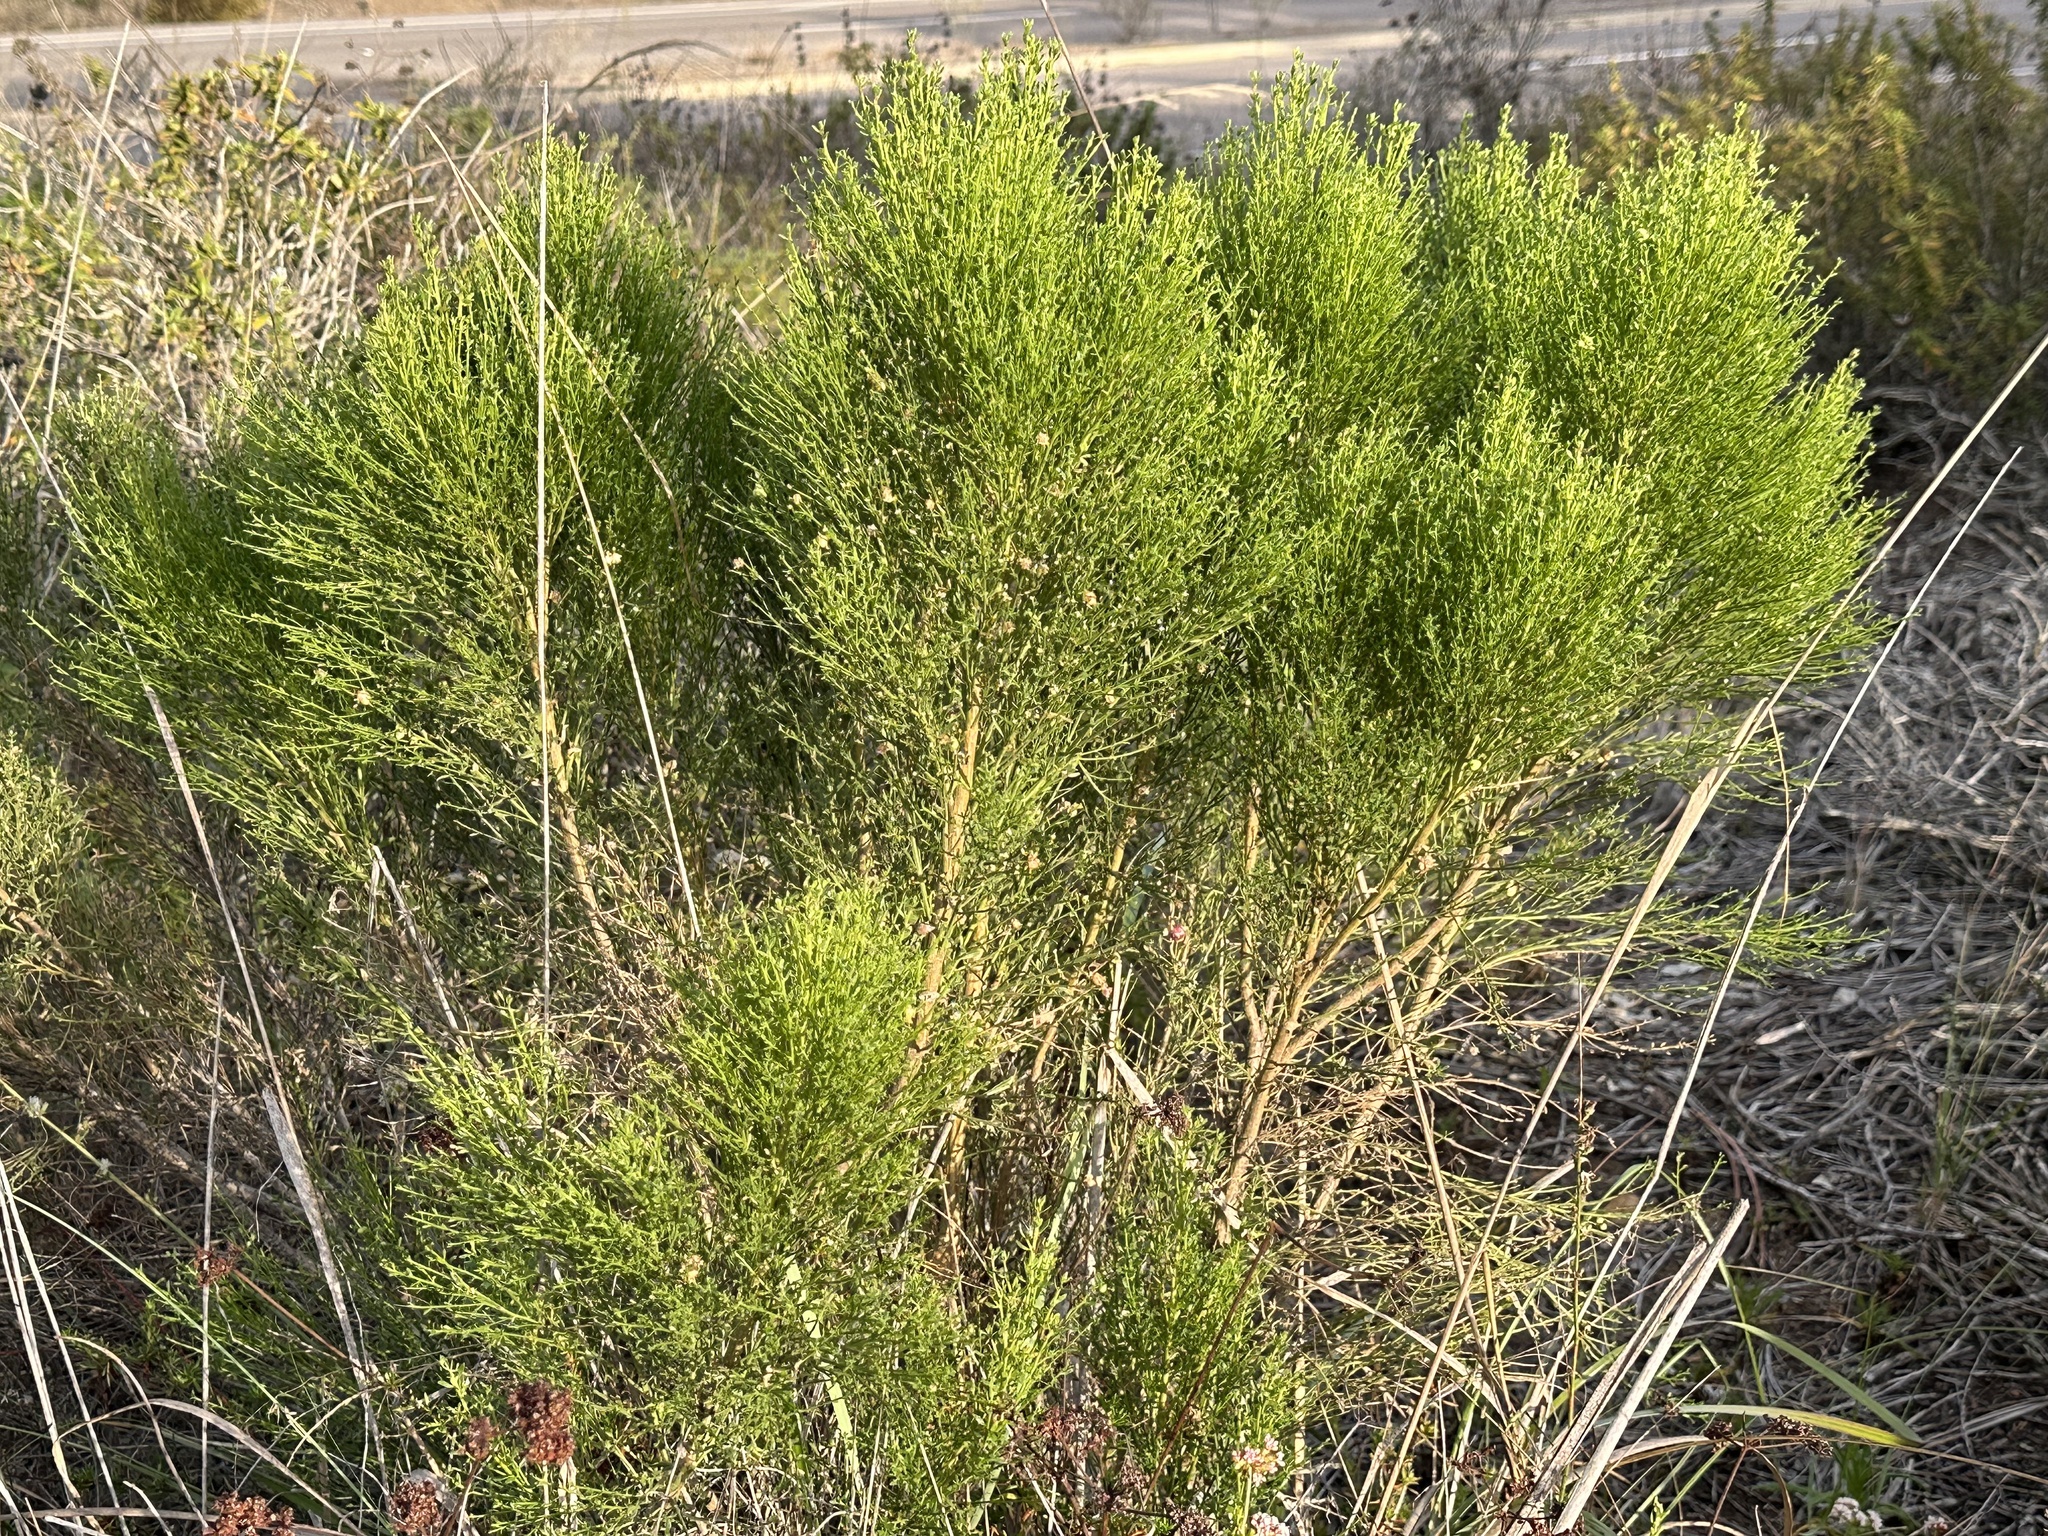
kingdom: Plantae
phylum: Tracheophyta
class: Magnoliopsida
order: Asterales
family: Asteraceae
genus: Baccharis
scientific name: Baccharis sarothroides
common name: Desert-broom
